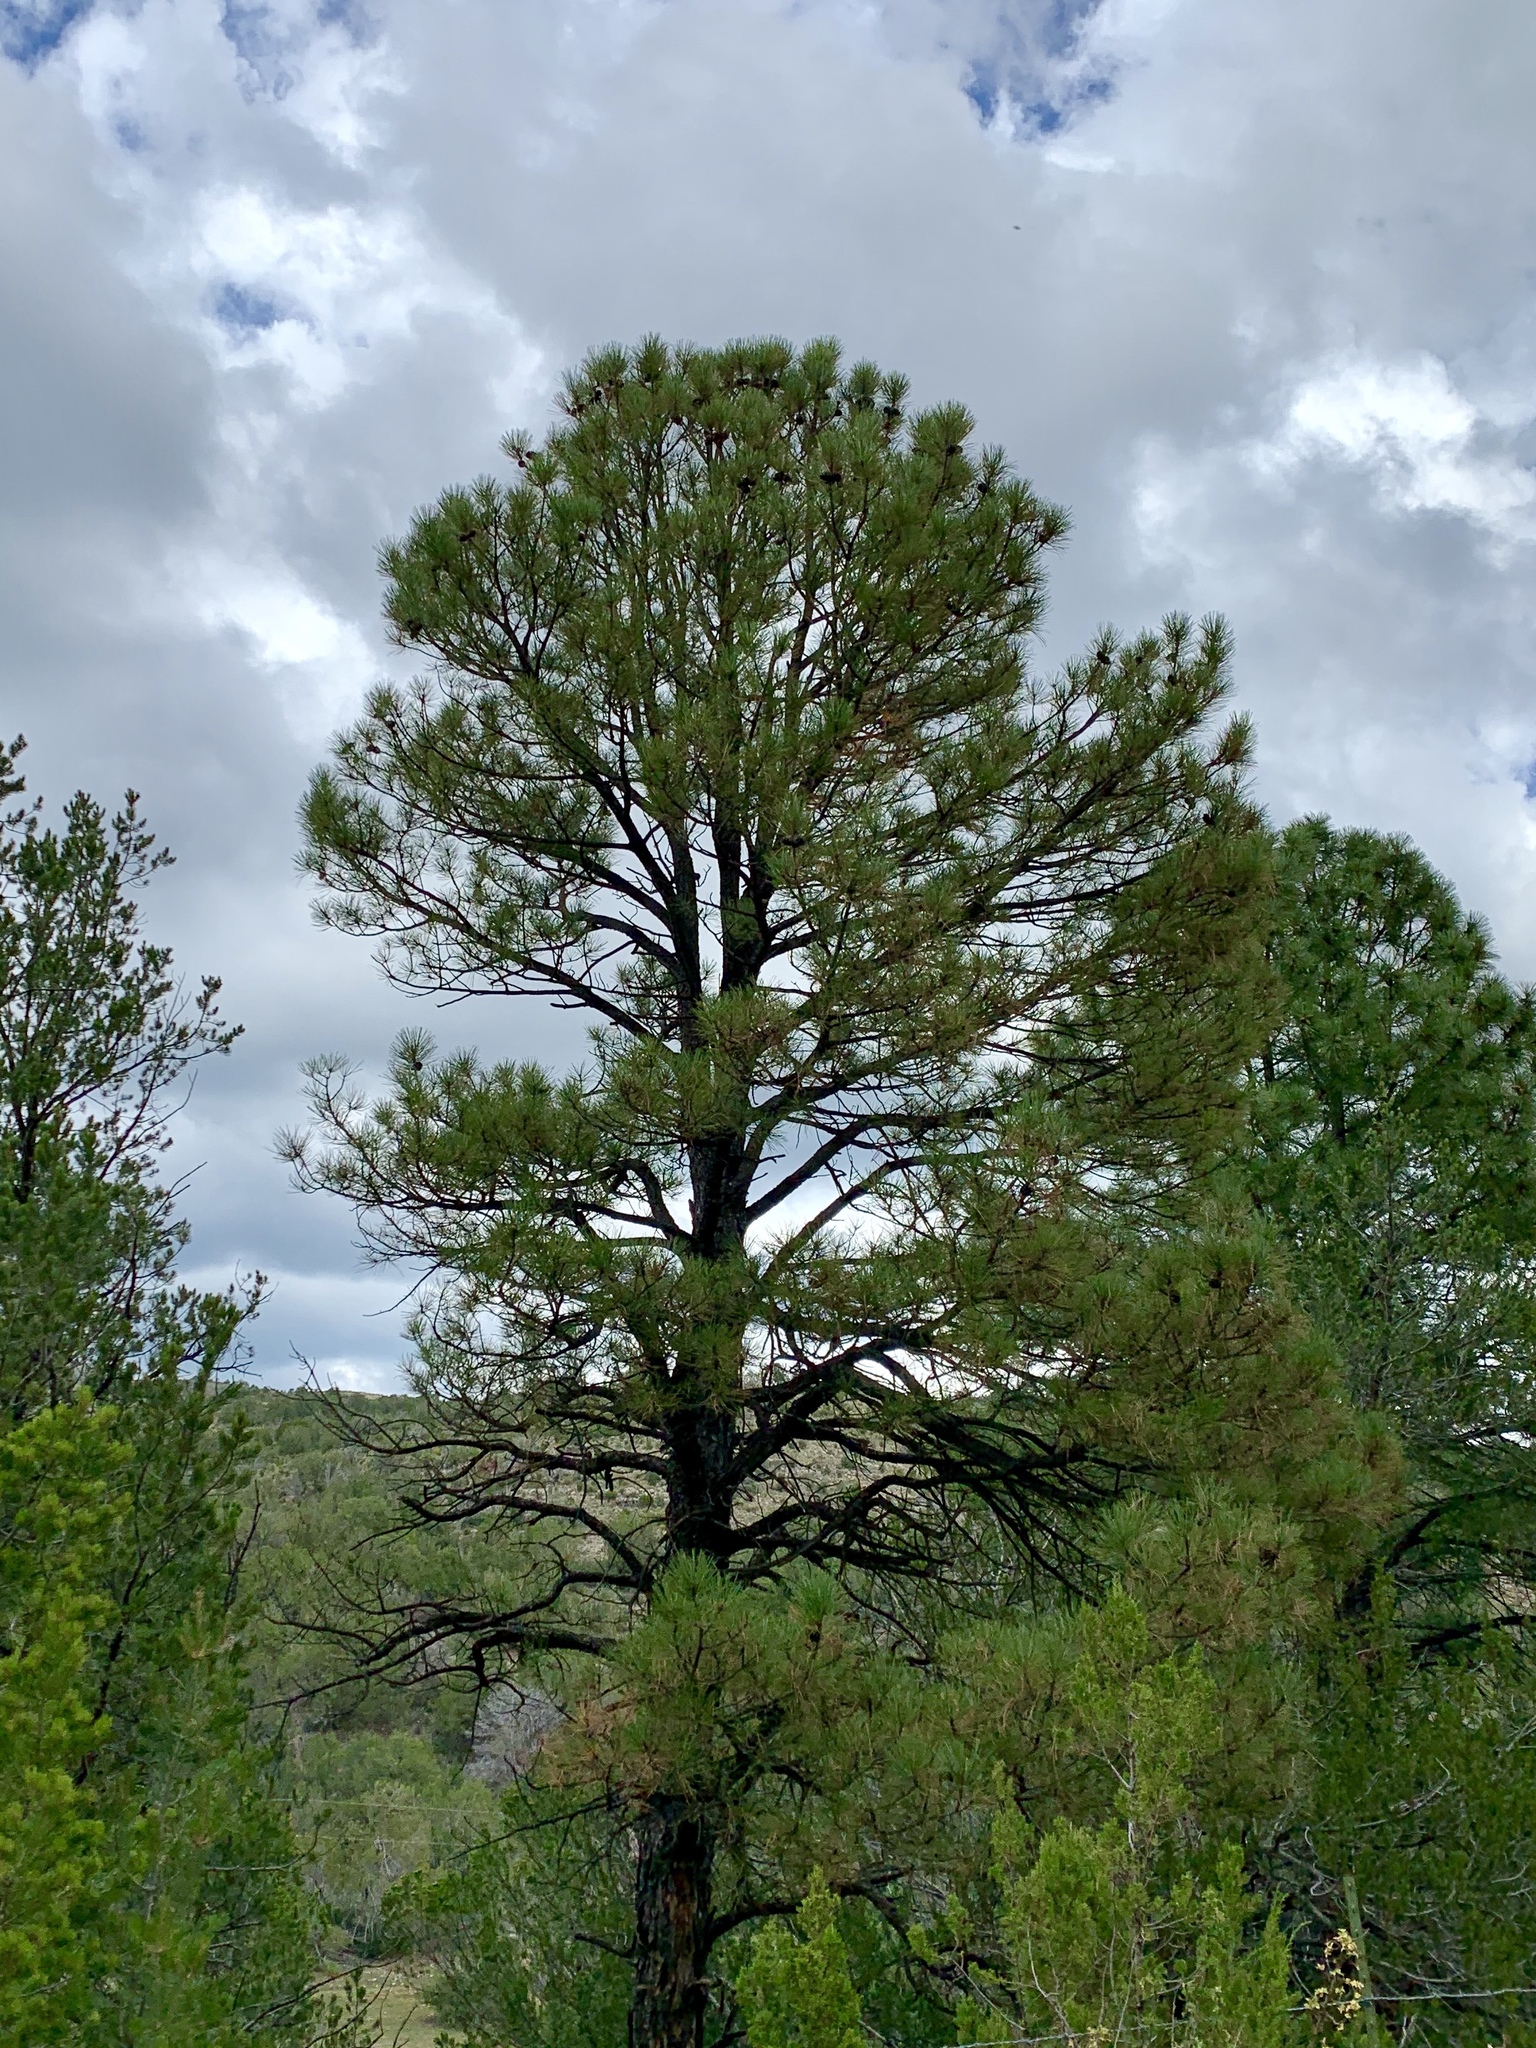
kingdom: Plantae
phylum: Tracheophyta
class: Pinopsida
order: Pinales
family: Pinaceae
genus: Pinus
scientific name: Pinus ponderosa
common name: Western yellow-pine
